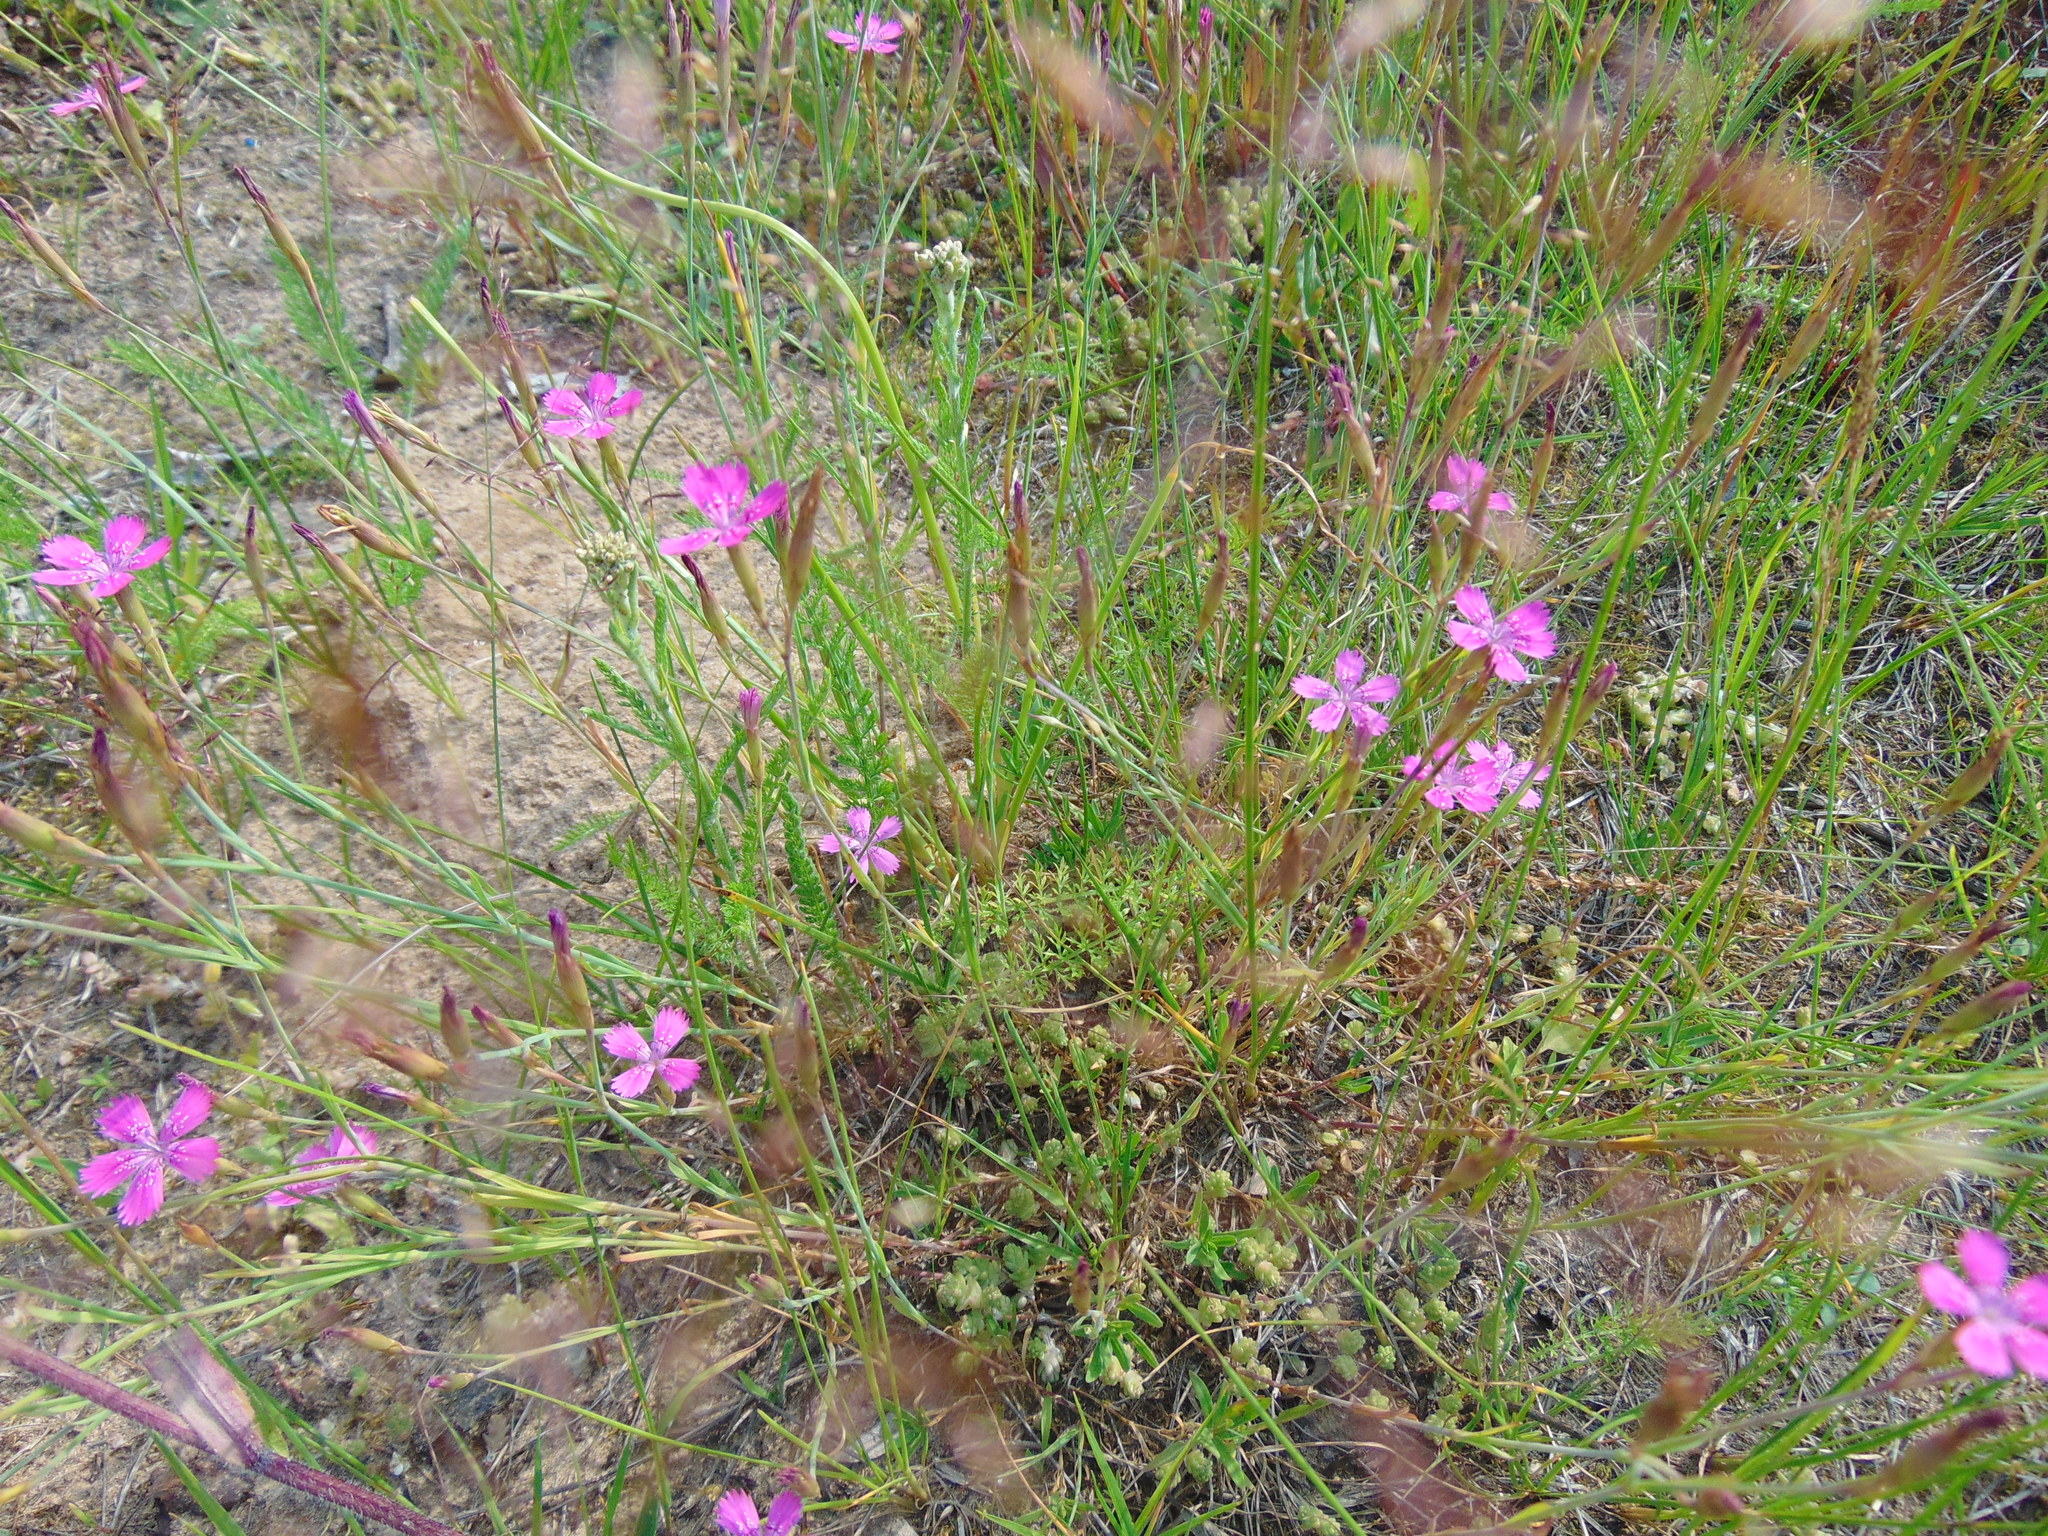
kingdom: Plantae
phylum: Tracheophyta
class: Magnoliopsida
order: Caryophyllales
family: Caryophyllaceae
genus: Dianthus
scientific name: Dianthus deltoides
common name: Maiden pink
